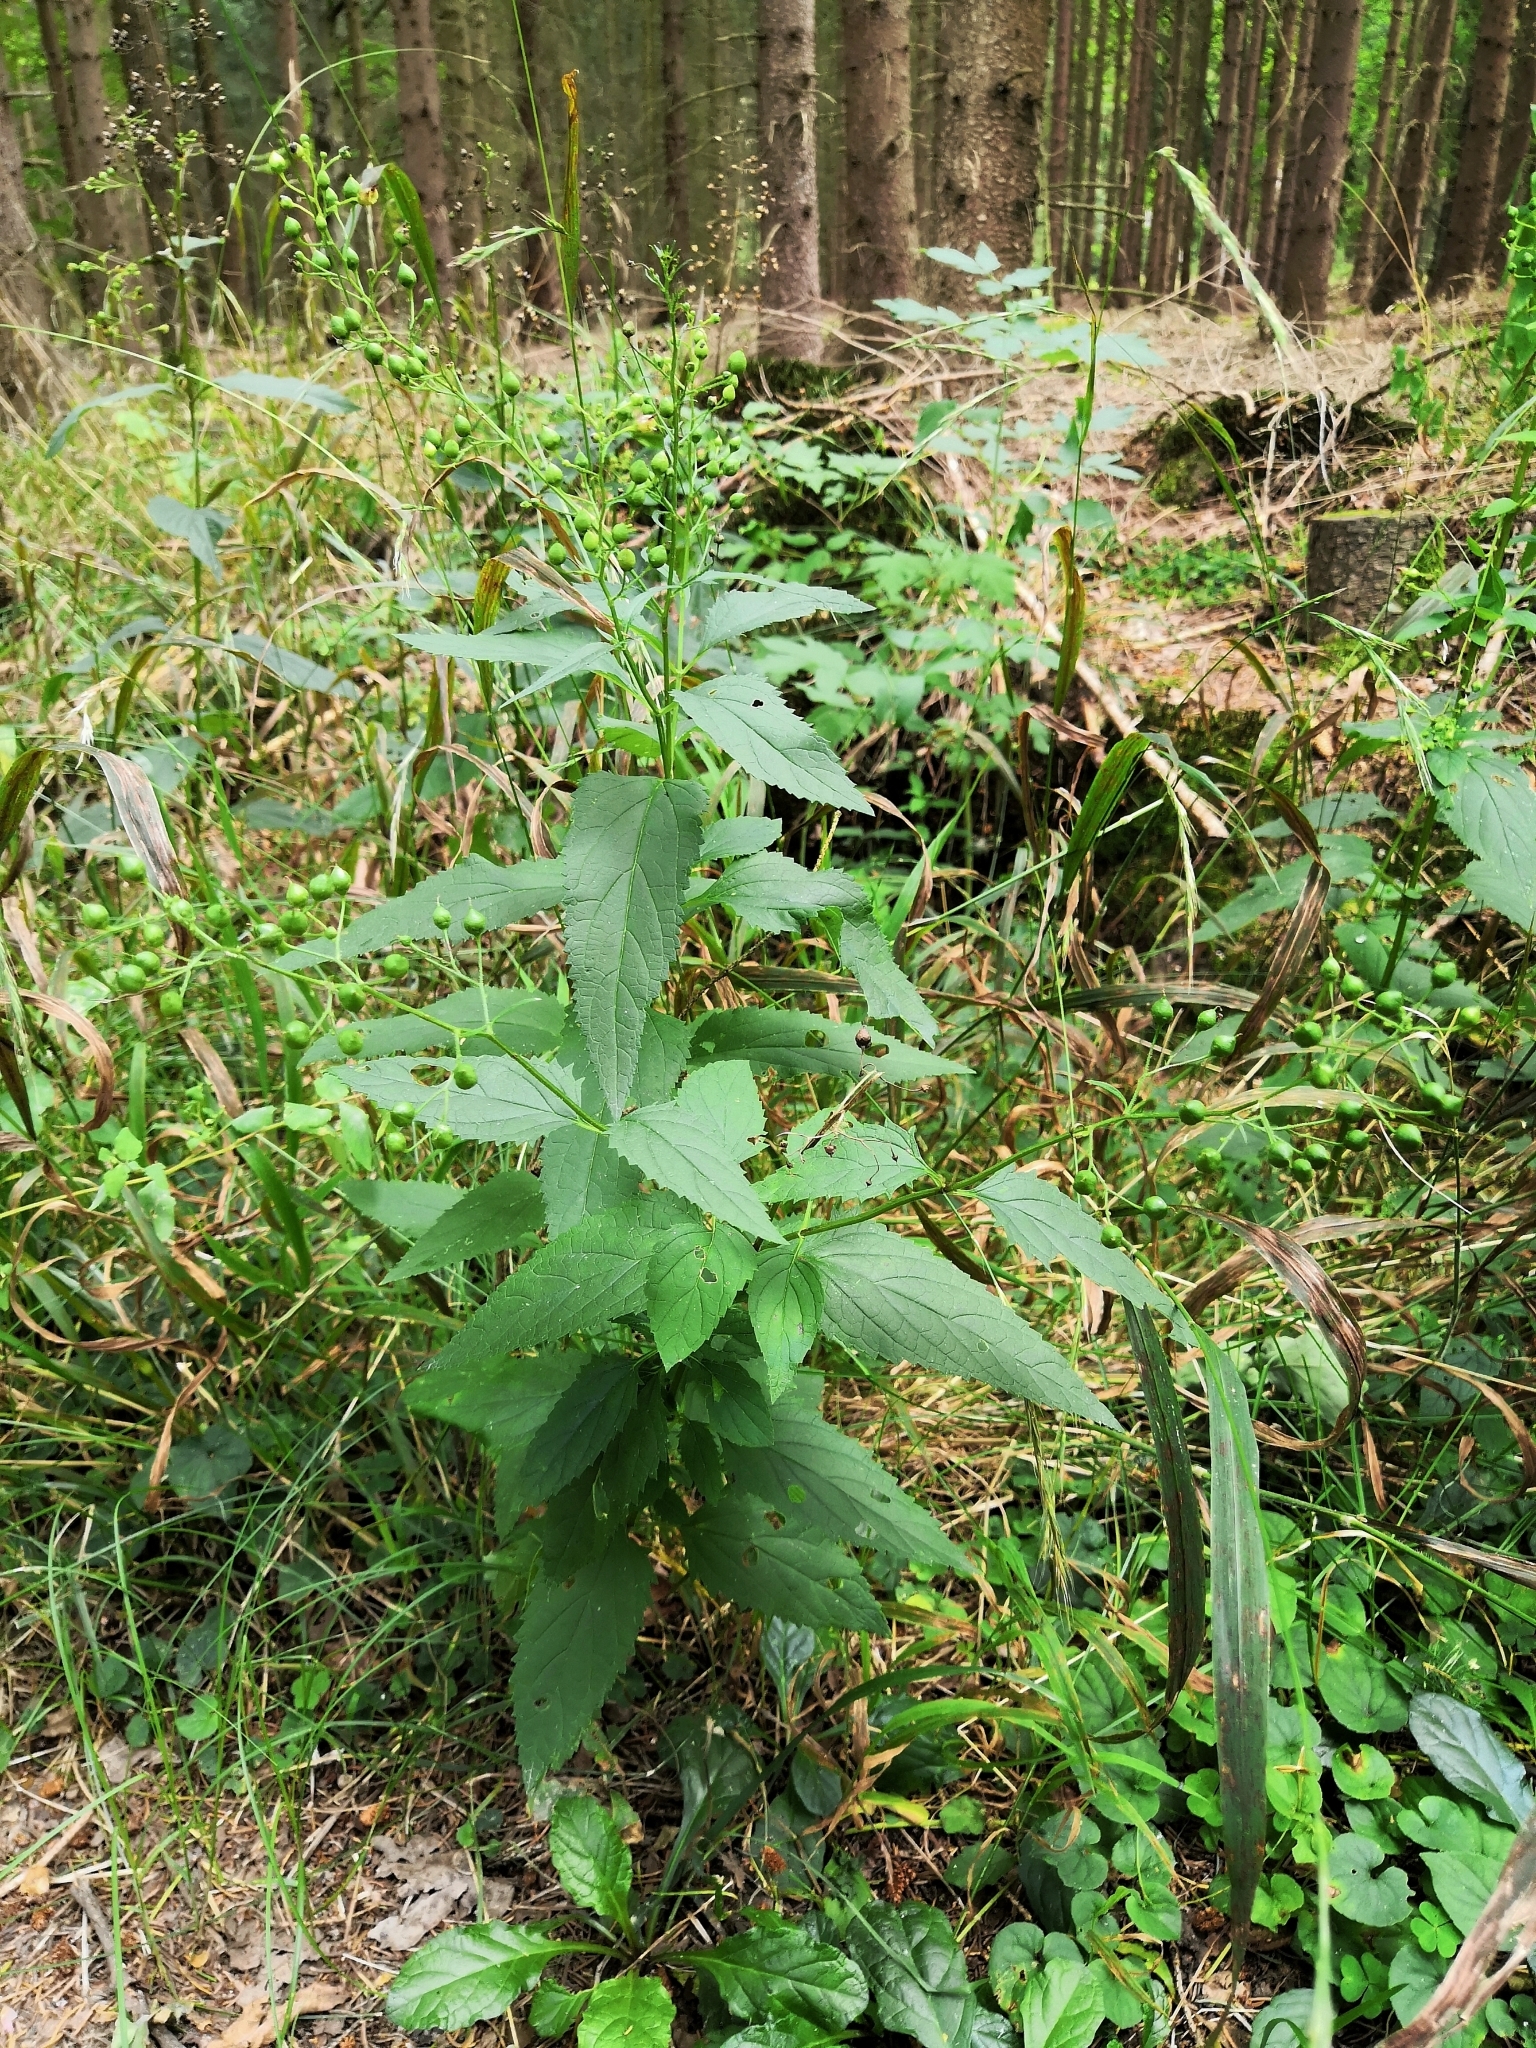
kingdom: Plantae
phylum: Tracheophyta
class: Magnoliopsida
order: Lamiales
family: Scrophulariaceae
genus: Scrophularia
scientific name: Scrophularia nodosa
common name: Common figwort
